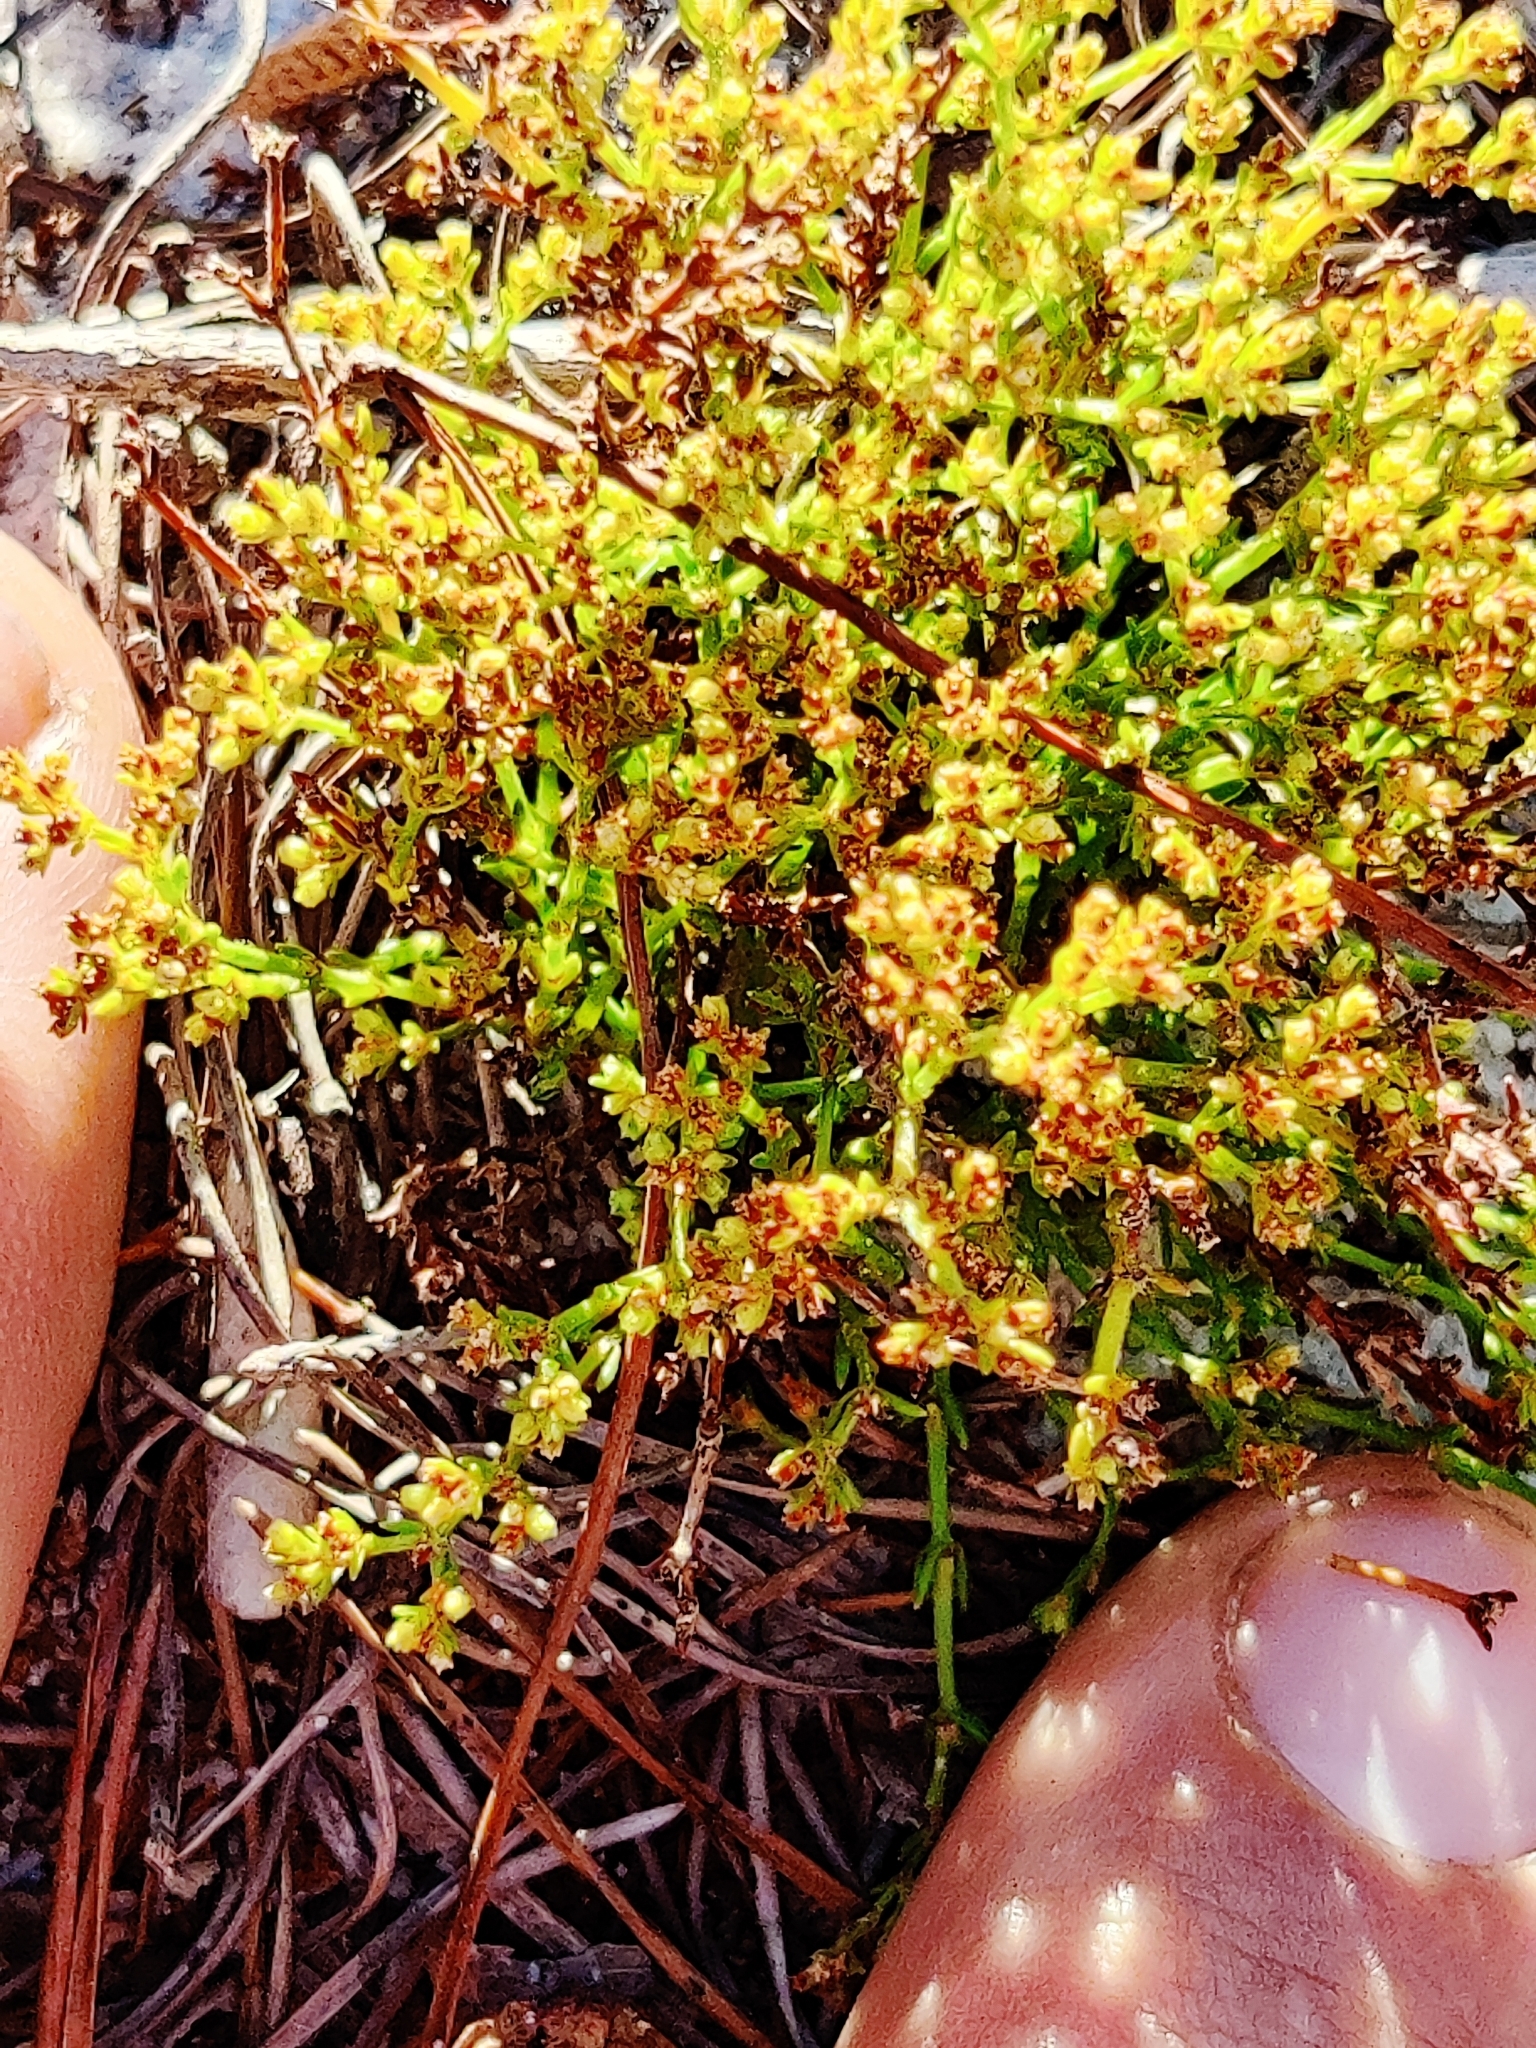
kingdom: Plantae
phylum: Tracheophyta
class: Magnoliopsida
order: Caryophyllales
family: Caryophyllaceae
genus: Paronychia
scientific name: Paronychia chartacea
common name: Paper nailwort
